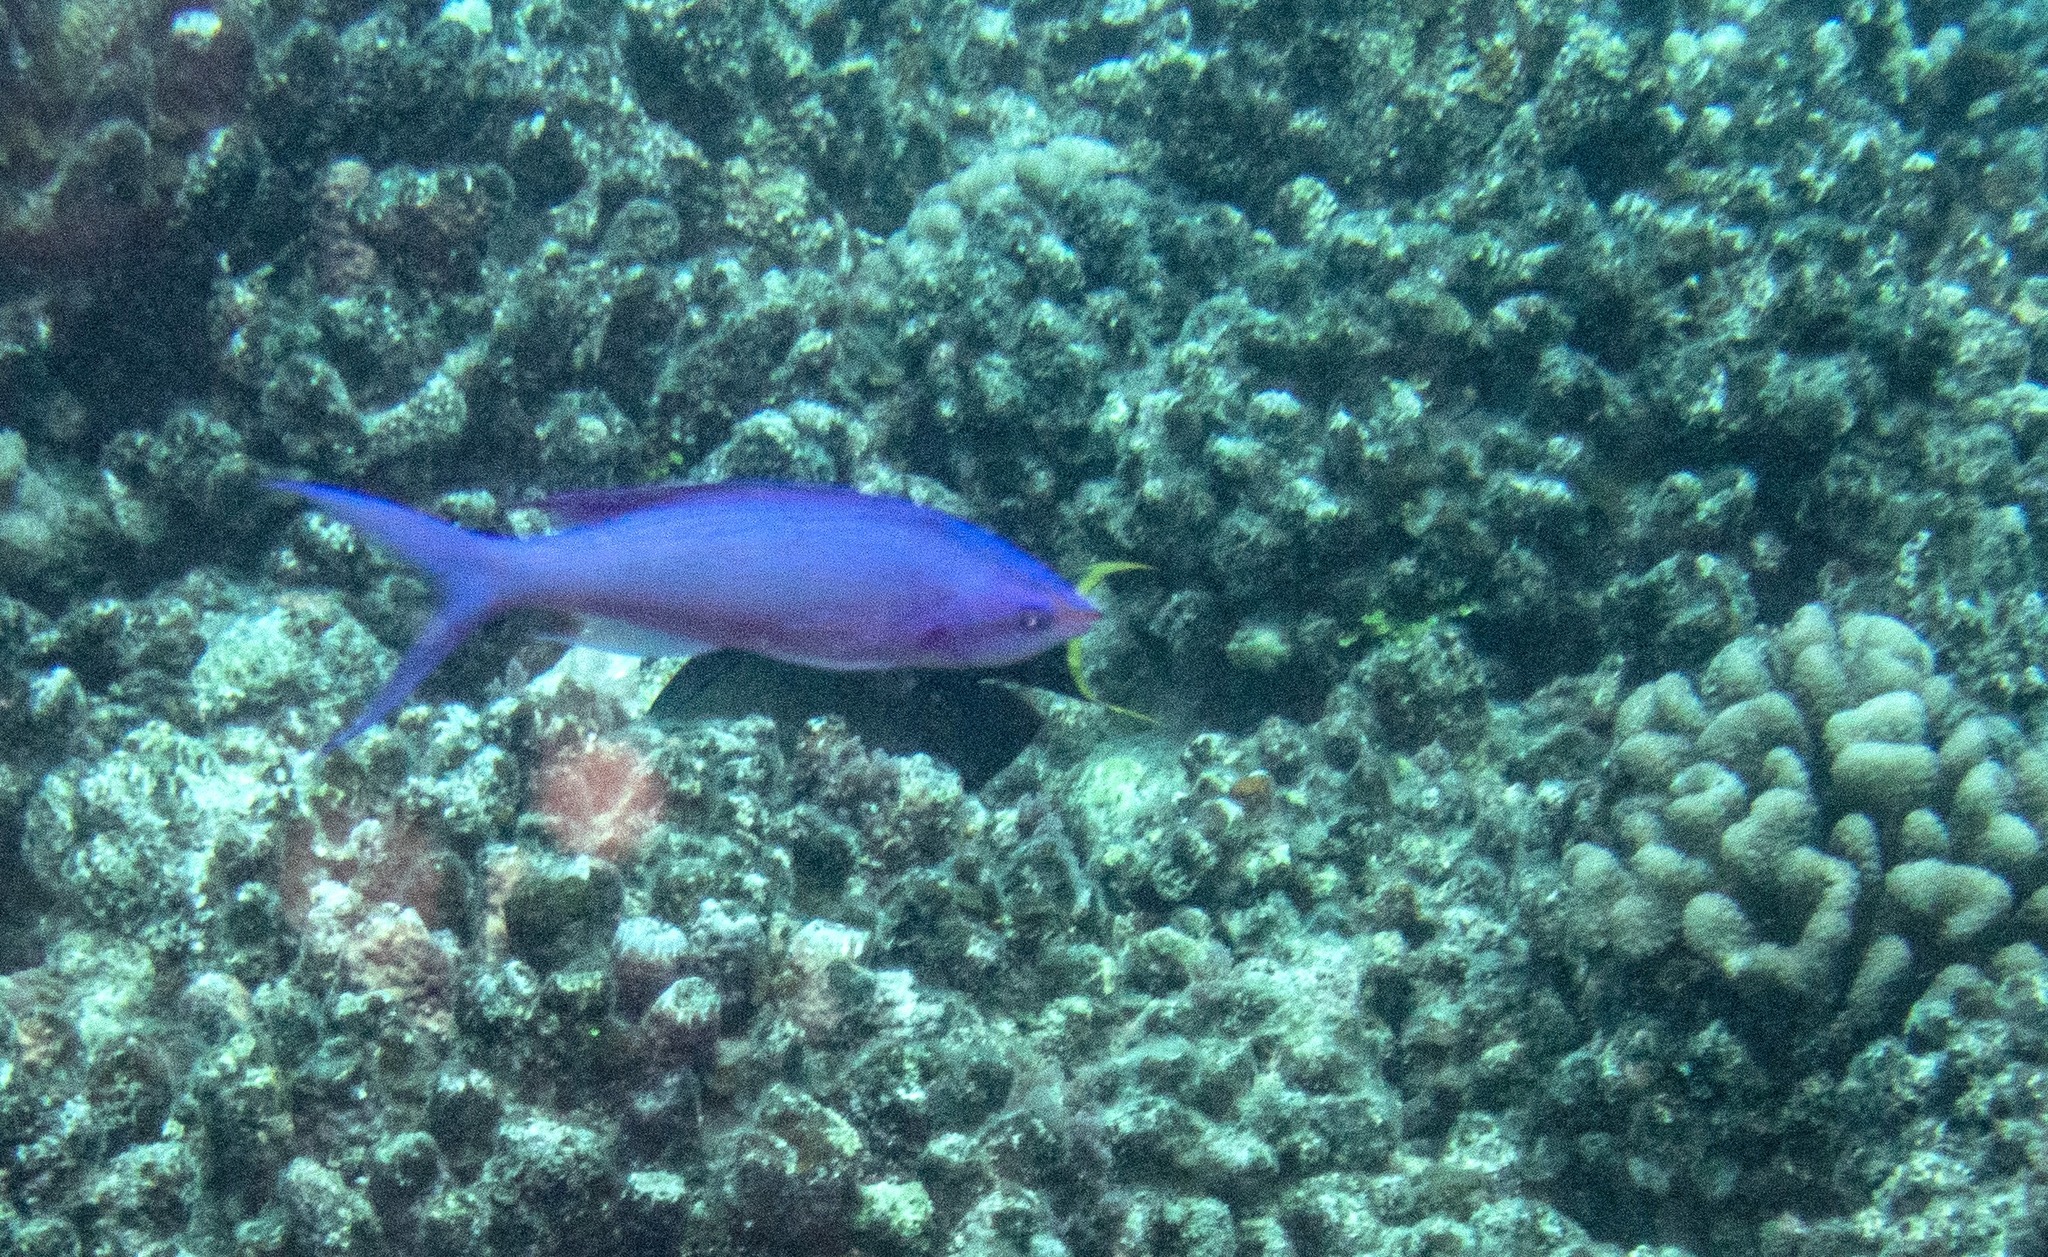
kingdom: Animalia
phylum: Chordata
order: Perciformes
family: Serranidae
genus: Pseudanthias
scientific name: Pseudanthias pascalus
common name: Amethyst anthias
